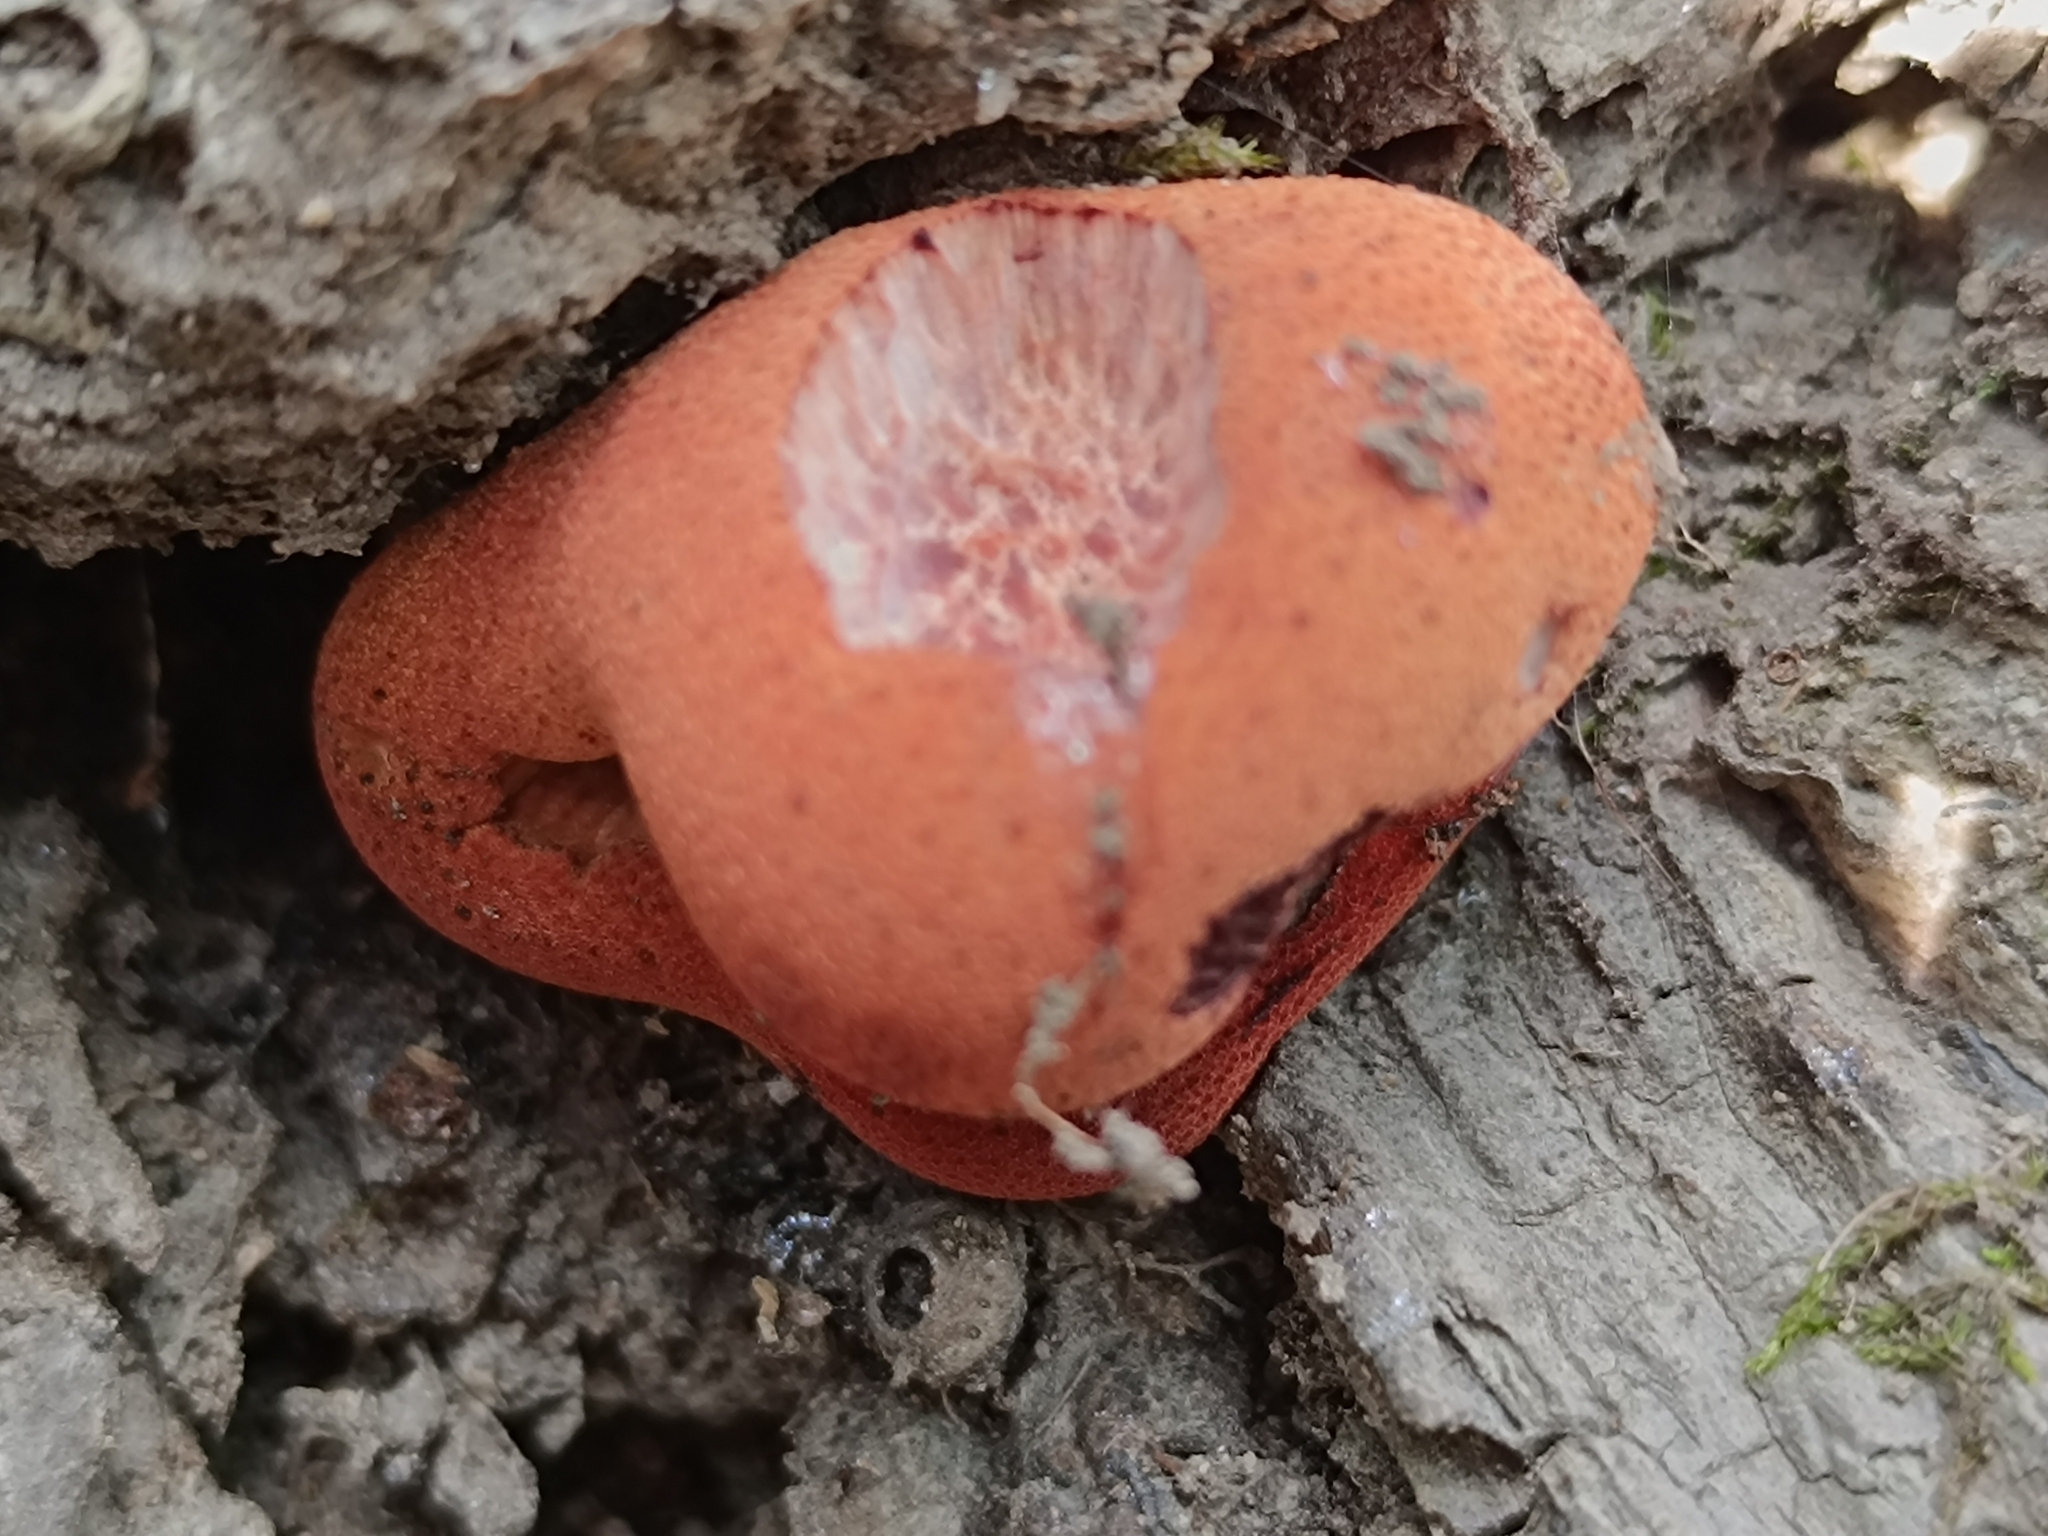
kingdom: Fungi
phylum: Basidiomycota
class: Agaricomycetes
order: Agaricales
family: Fistulinaceae
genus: Fistulina
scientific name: Fistulina hepatica
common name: Beef-steak fungus
